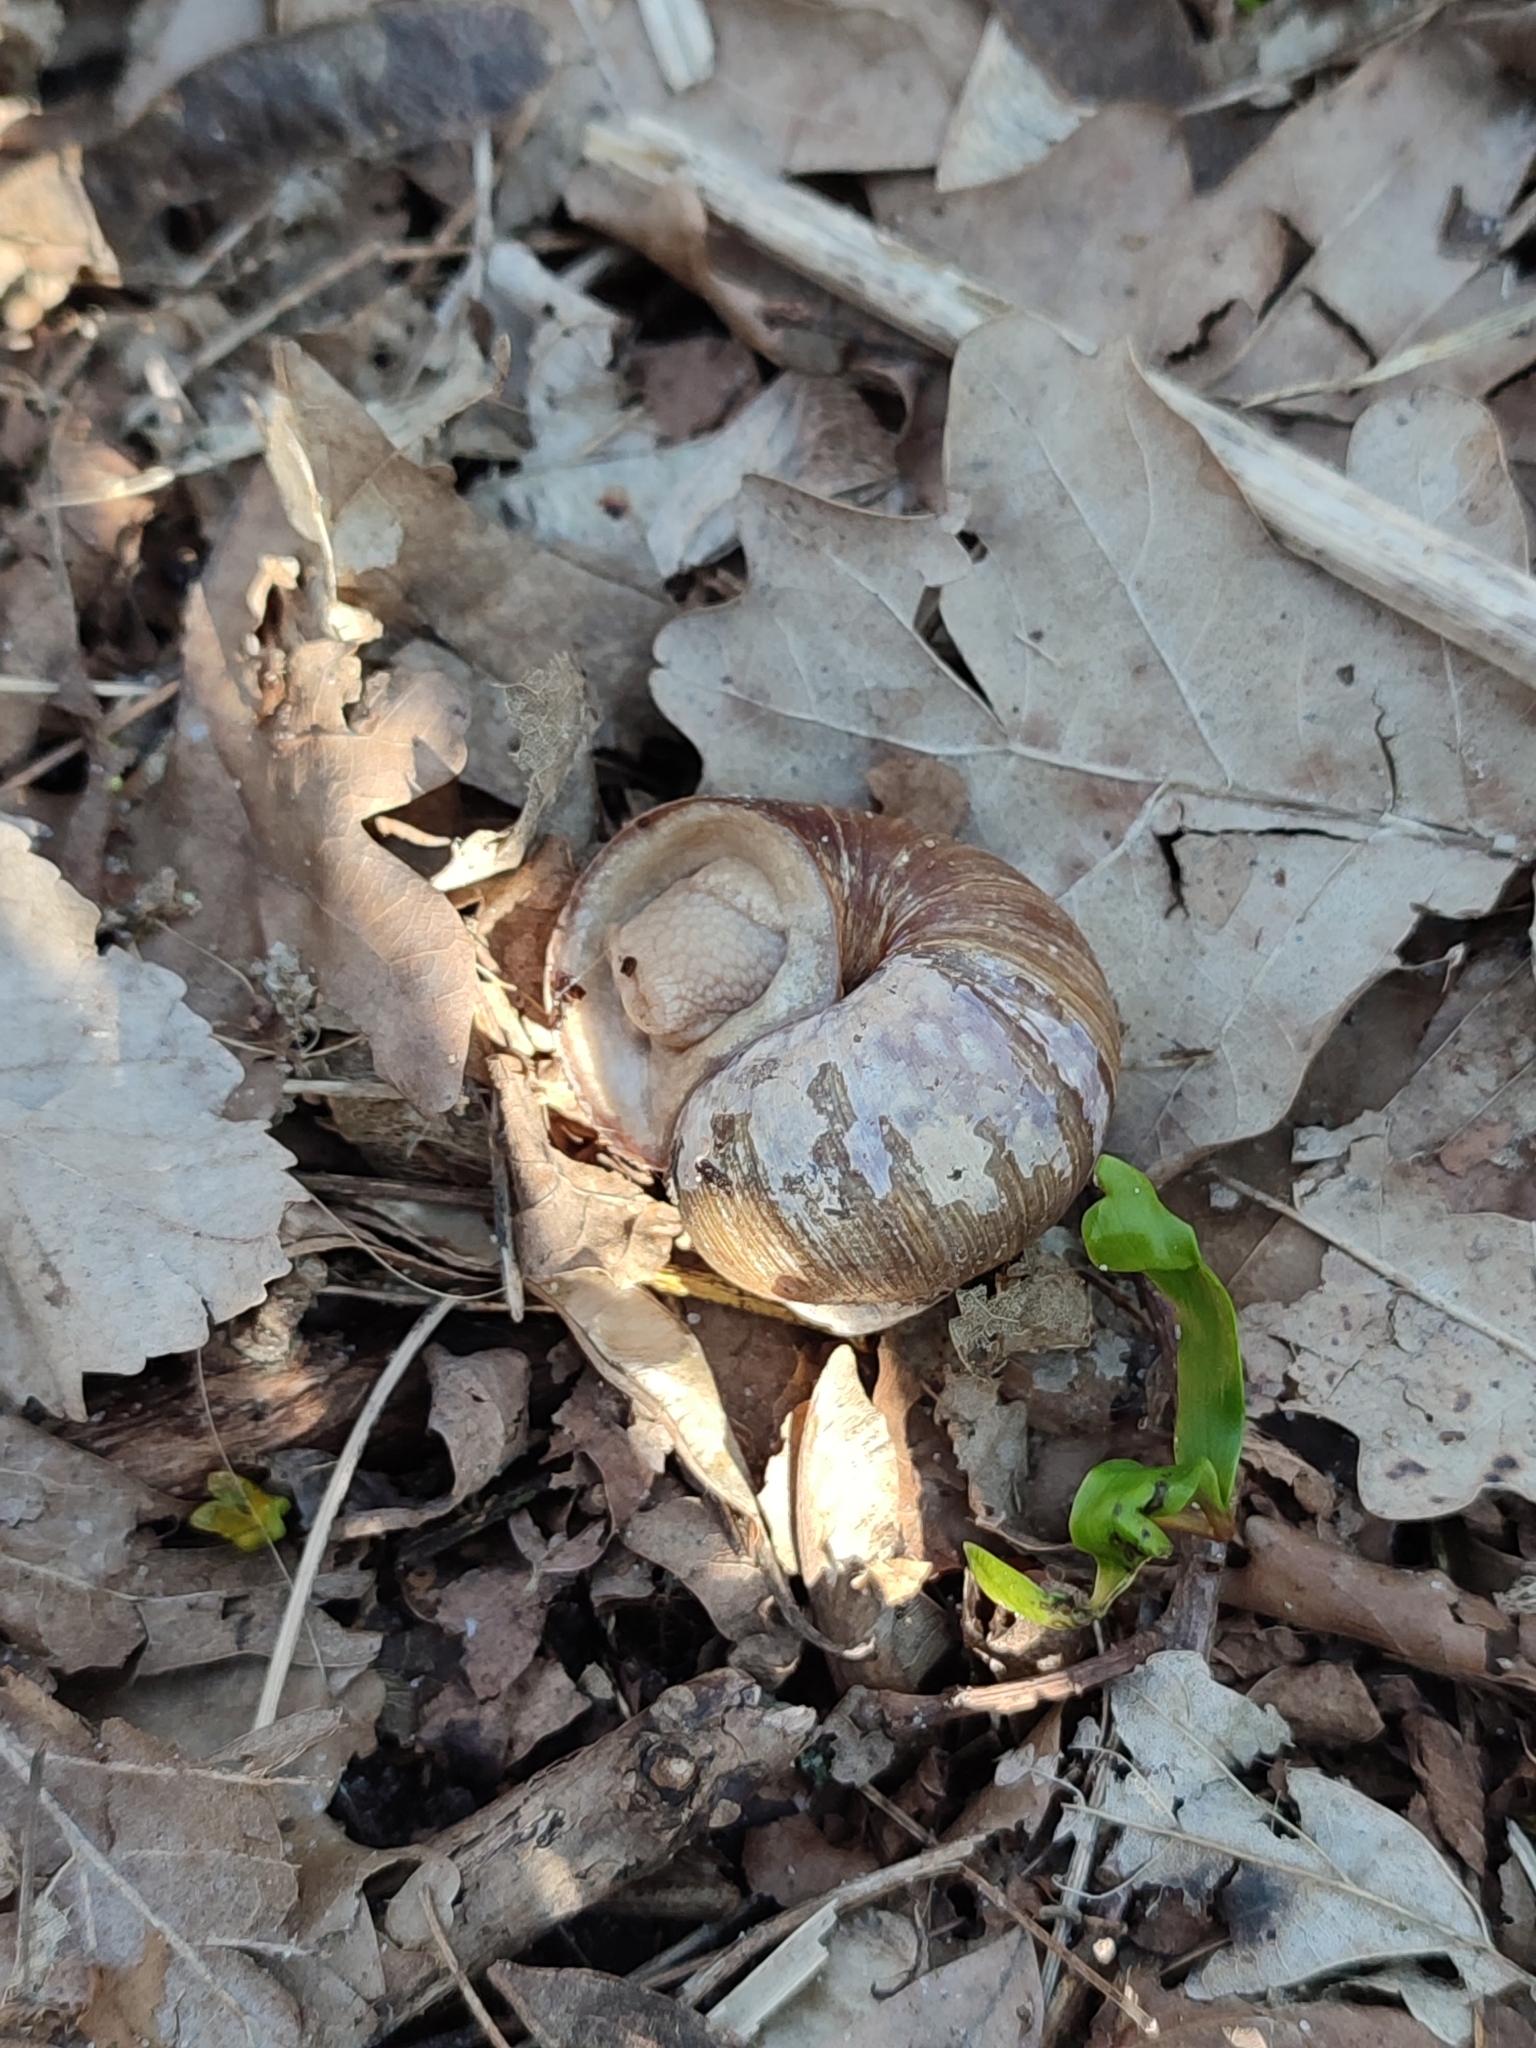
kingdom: Animalia
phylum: Mollusca
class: Gastropoda
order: Stylommatophora
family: Helicidae
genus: Helix
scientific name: Helix pomatia
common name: Roman snail
